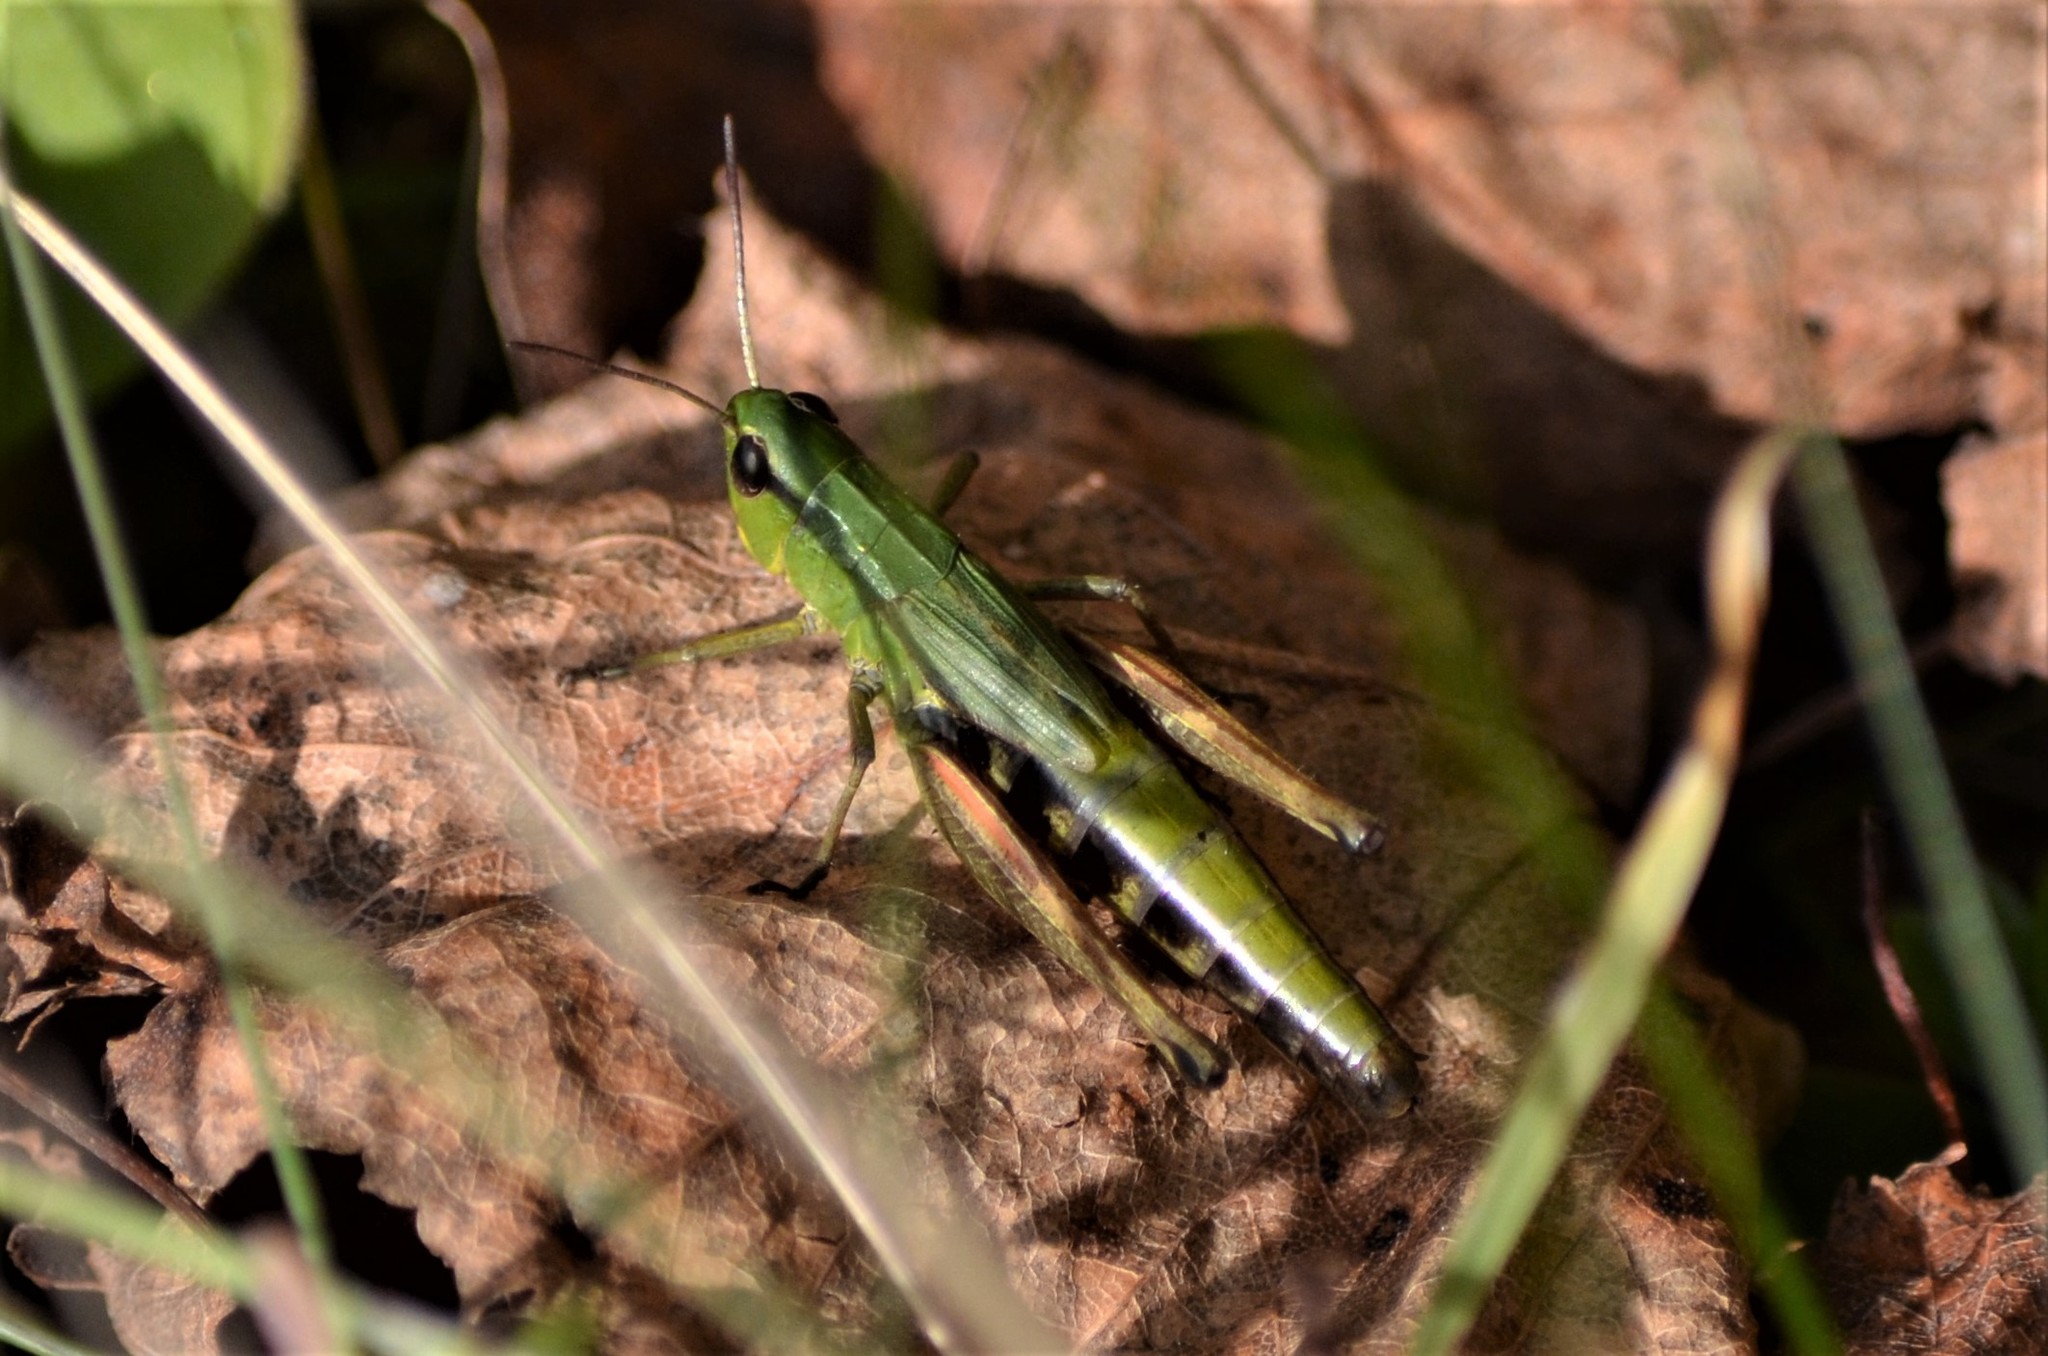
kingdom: Animalia
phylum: Arthropoda
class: Insecta
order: Orthoptera
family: Acrididae
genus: Pseudochorthippus
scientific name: Pseudochorthippus parallelus
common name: Meadow grasshopper
